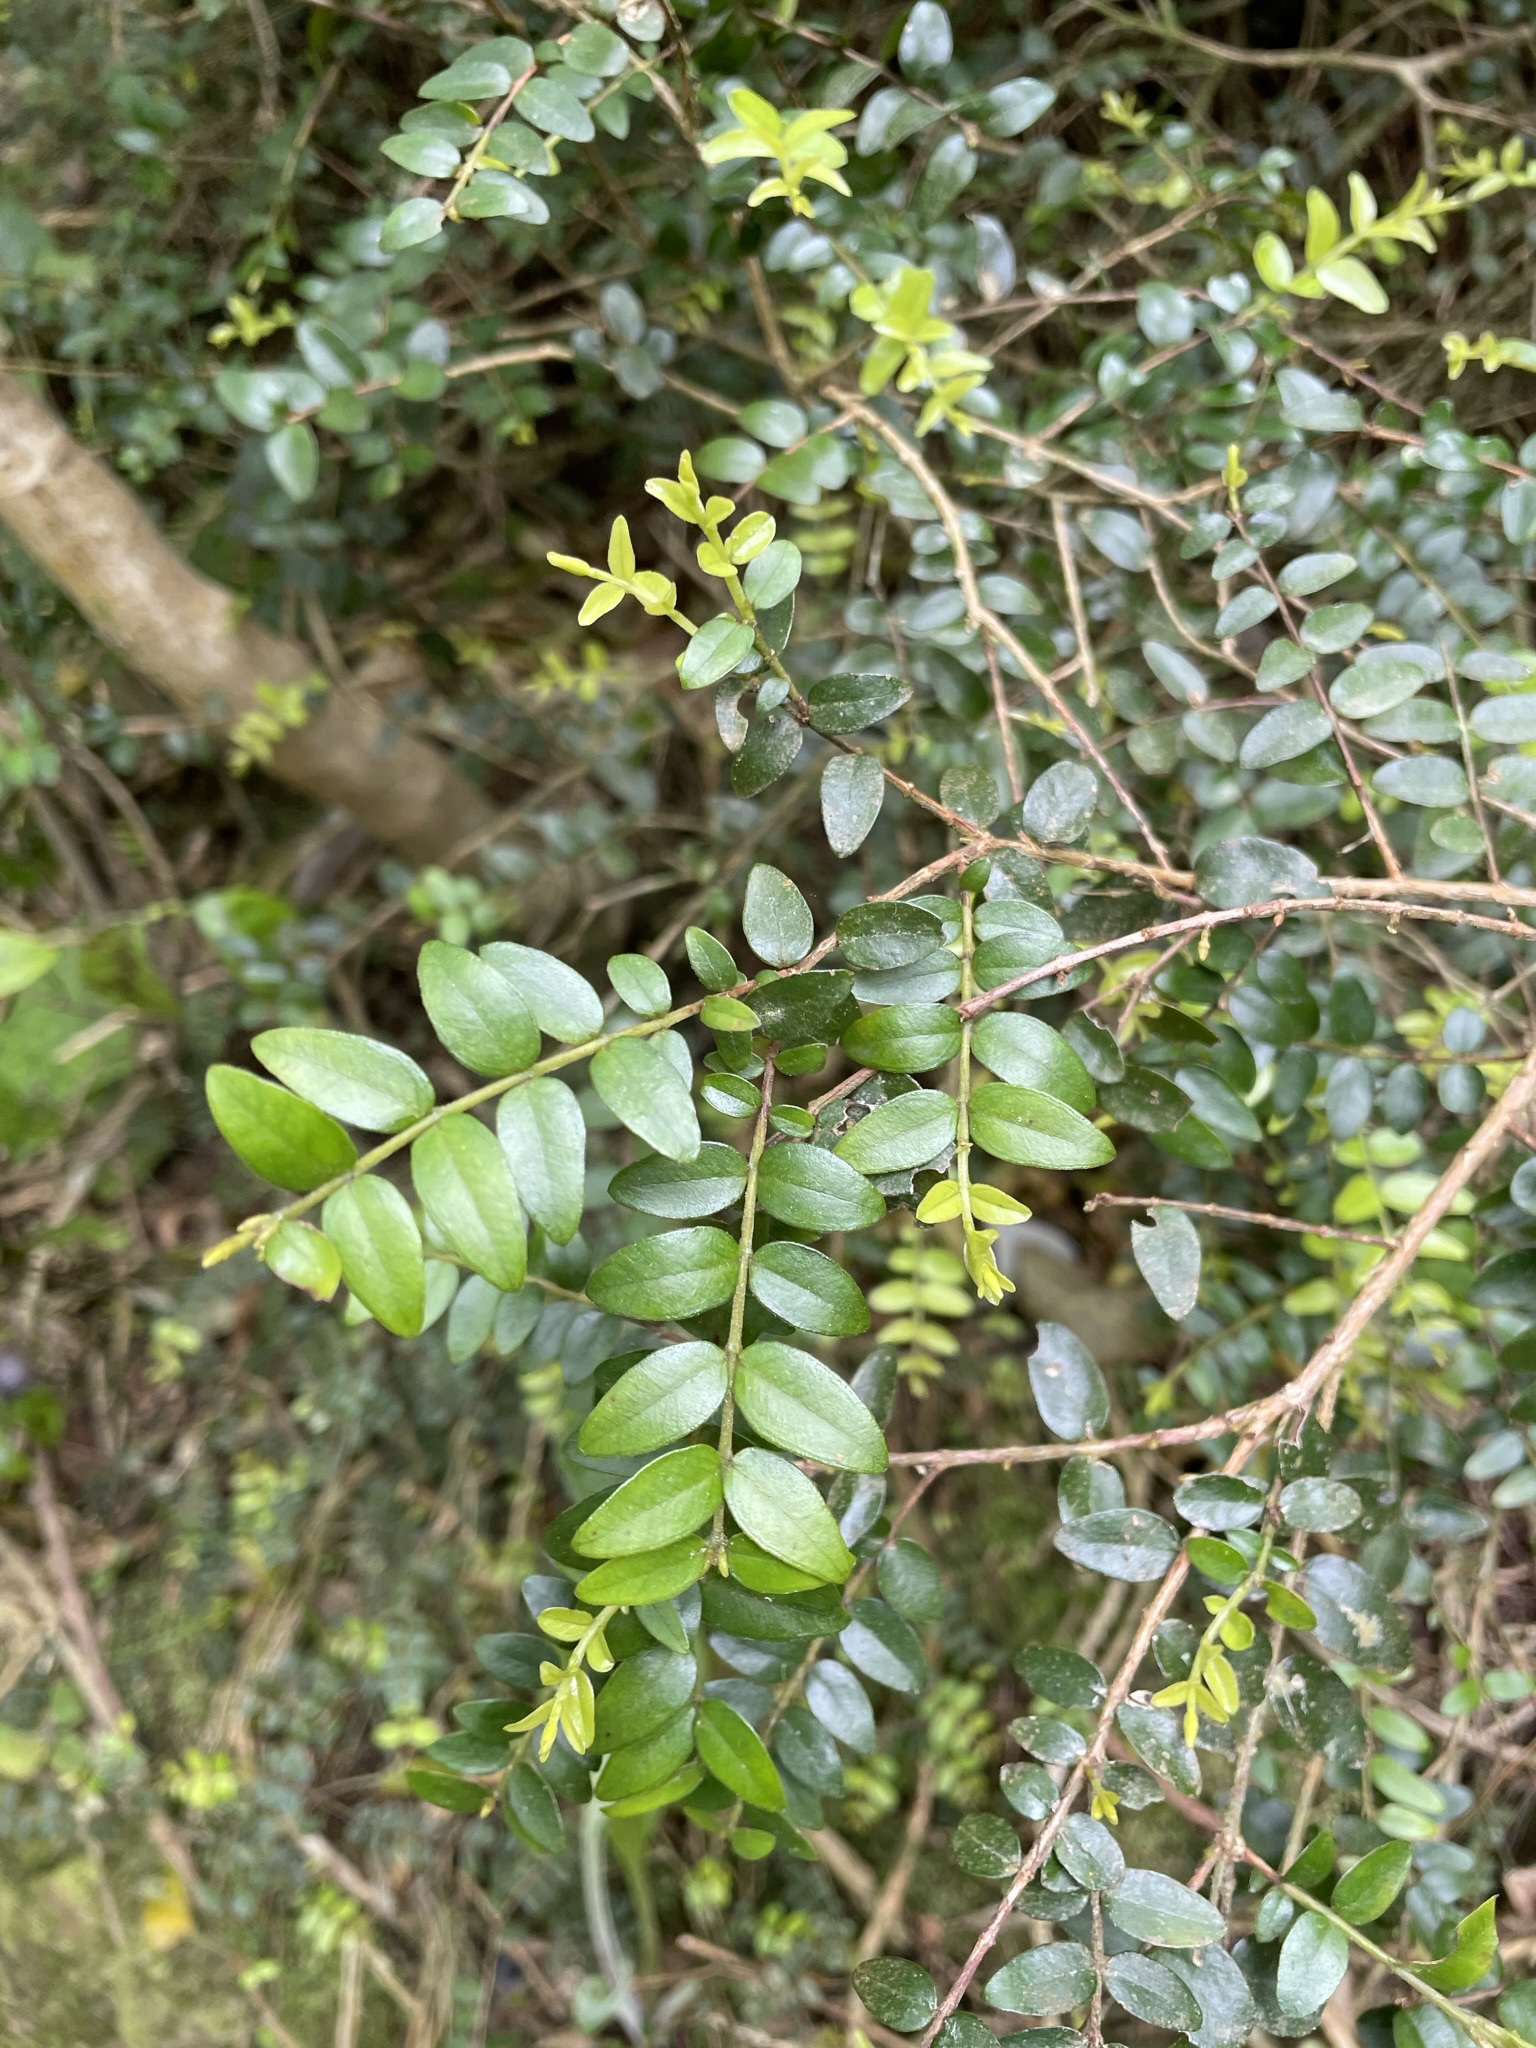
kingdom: Plantae
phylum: Tracheophyta
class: Magnoliopsida
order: Myrtales
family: Myrtaceae
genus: Metrosideros
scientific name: Metrosideros diffusa
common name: Small ratavine
